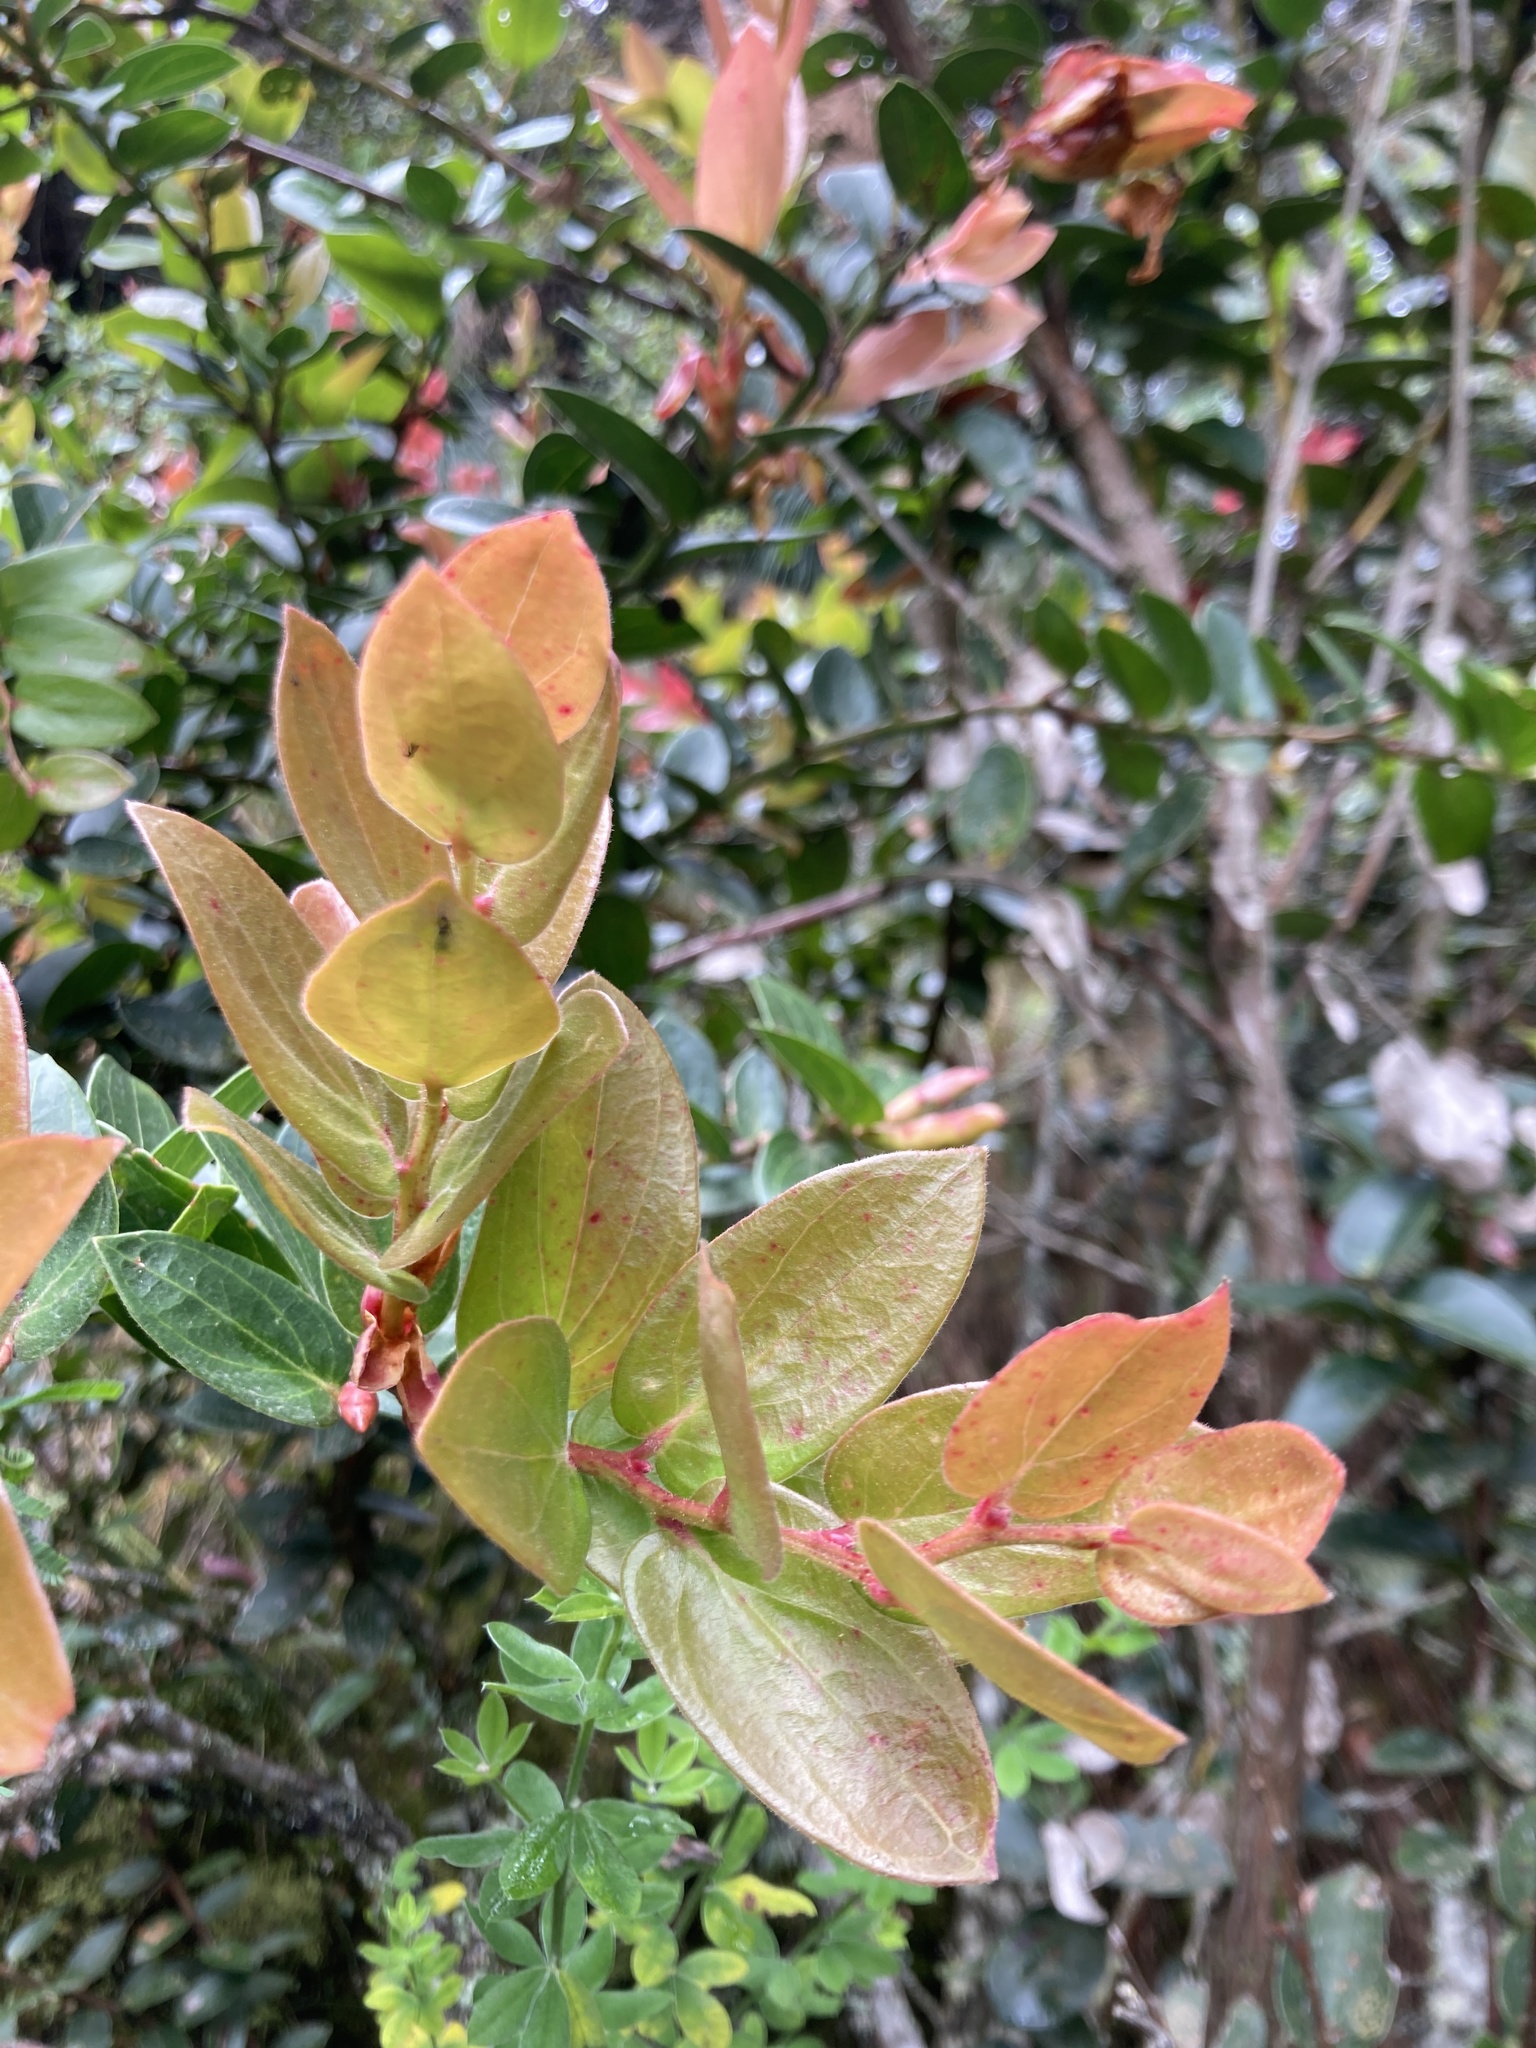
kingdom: Plantae
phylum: Tracheophyta
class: Magnoliopsida
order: Ericales
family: Ericaceae
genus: Cavendishia
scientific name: Cavendishia bracteata
